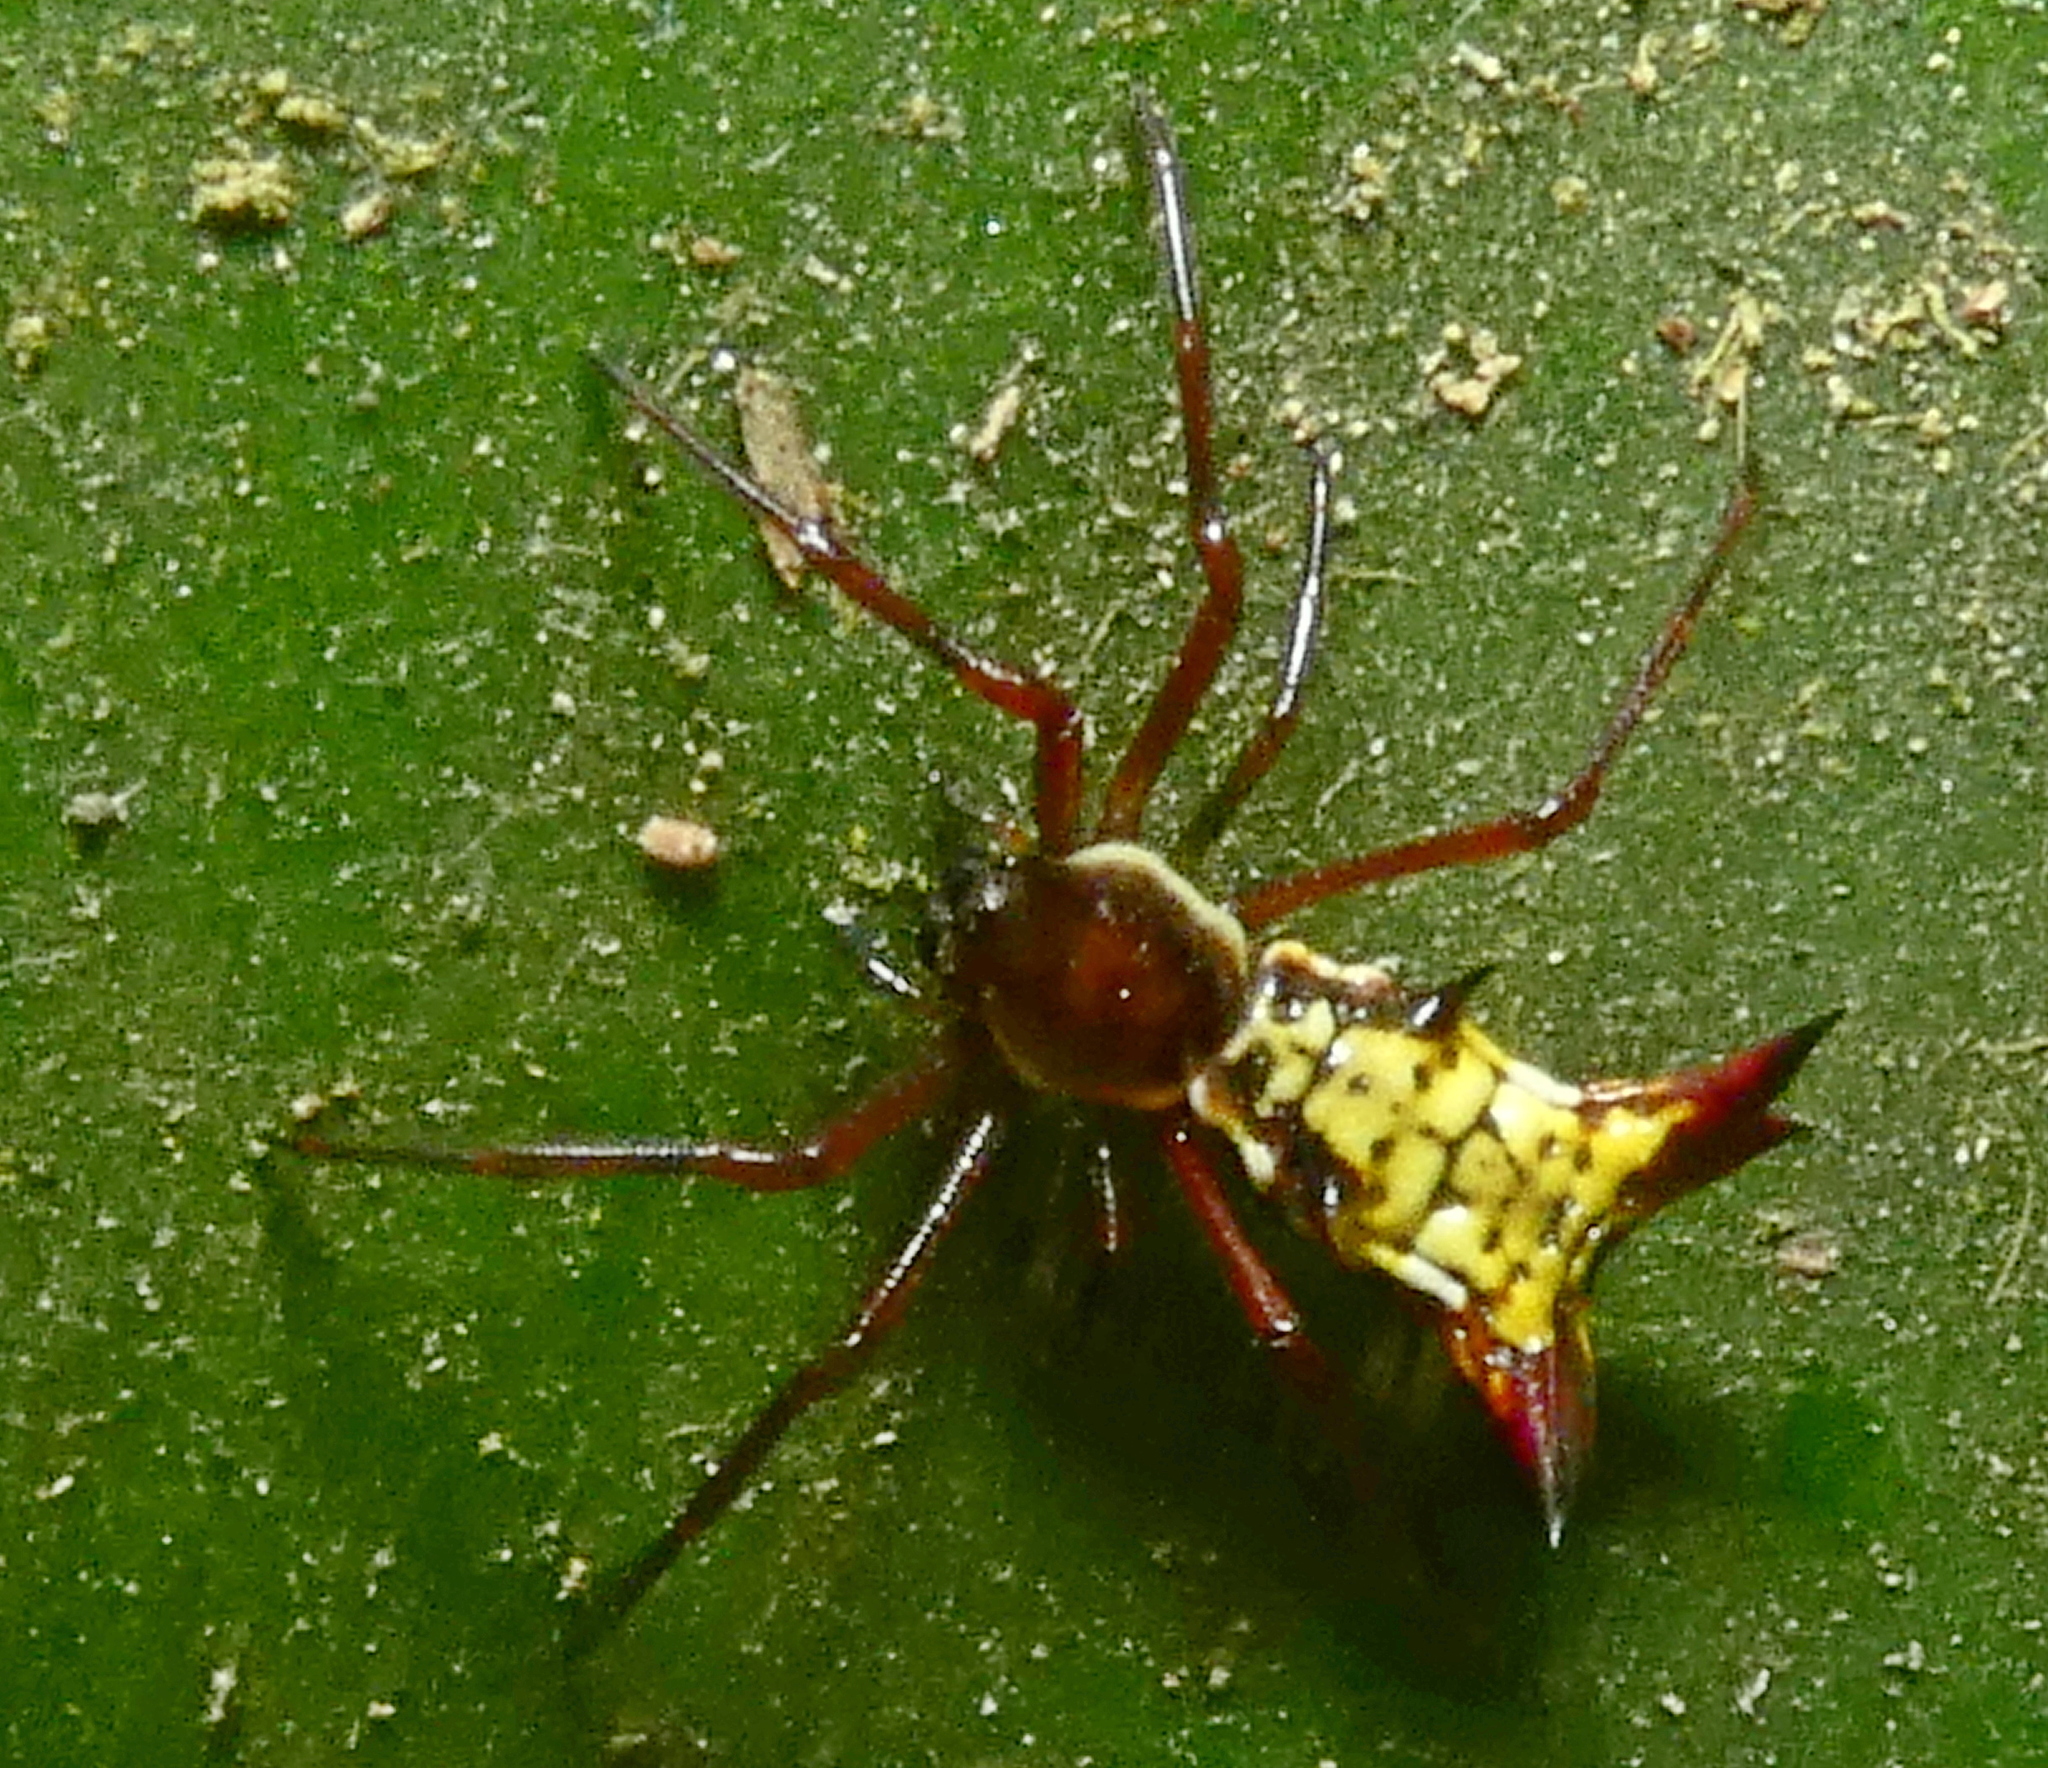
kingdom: Animalia
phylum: Arthropoda
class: Arachnida
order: Araneae
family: Araneidae
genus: Micrathena
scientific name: Micrathena fissispina
